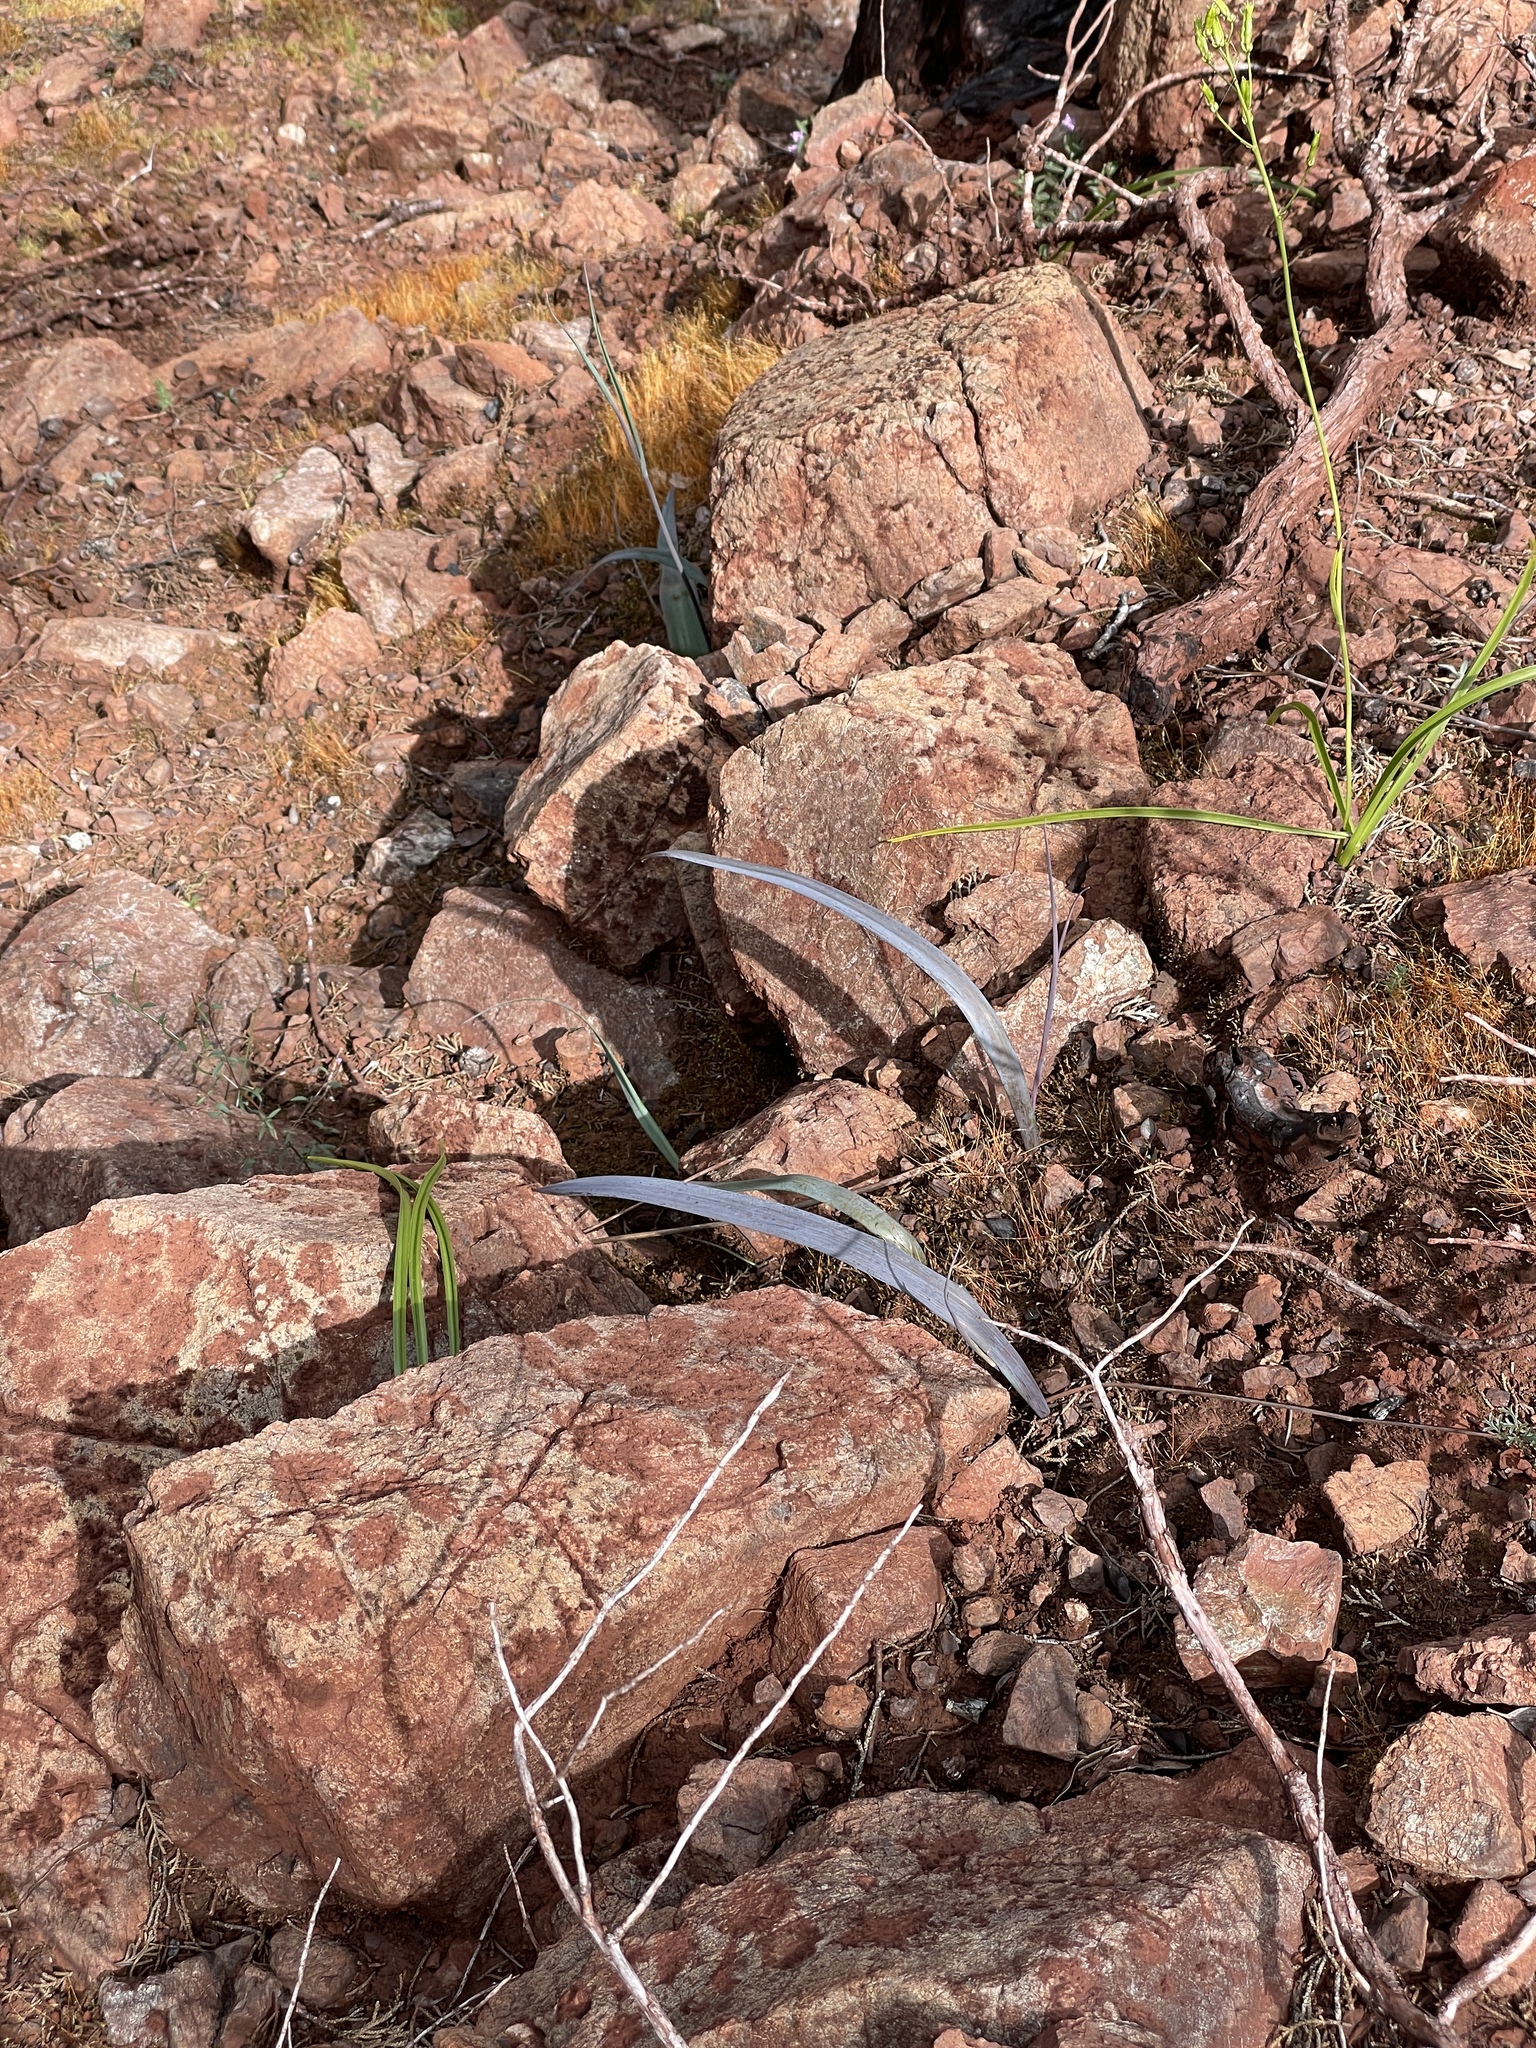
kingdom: Plantae
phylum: Tracheophyta
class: Liliopsida
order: Liliales
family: Liliaceae
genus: Calochortus
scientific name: Calochortus raichei
